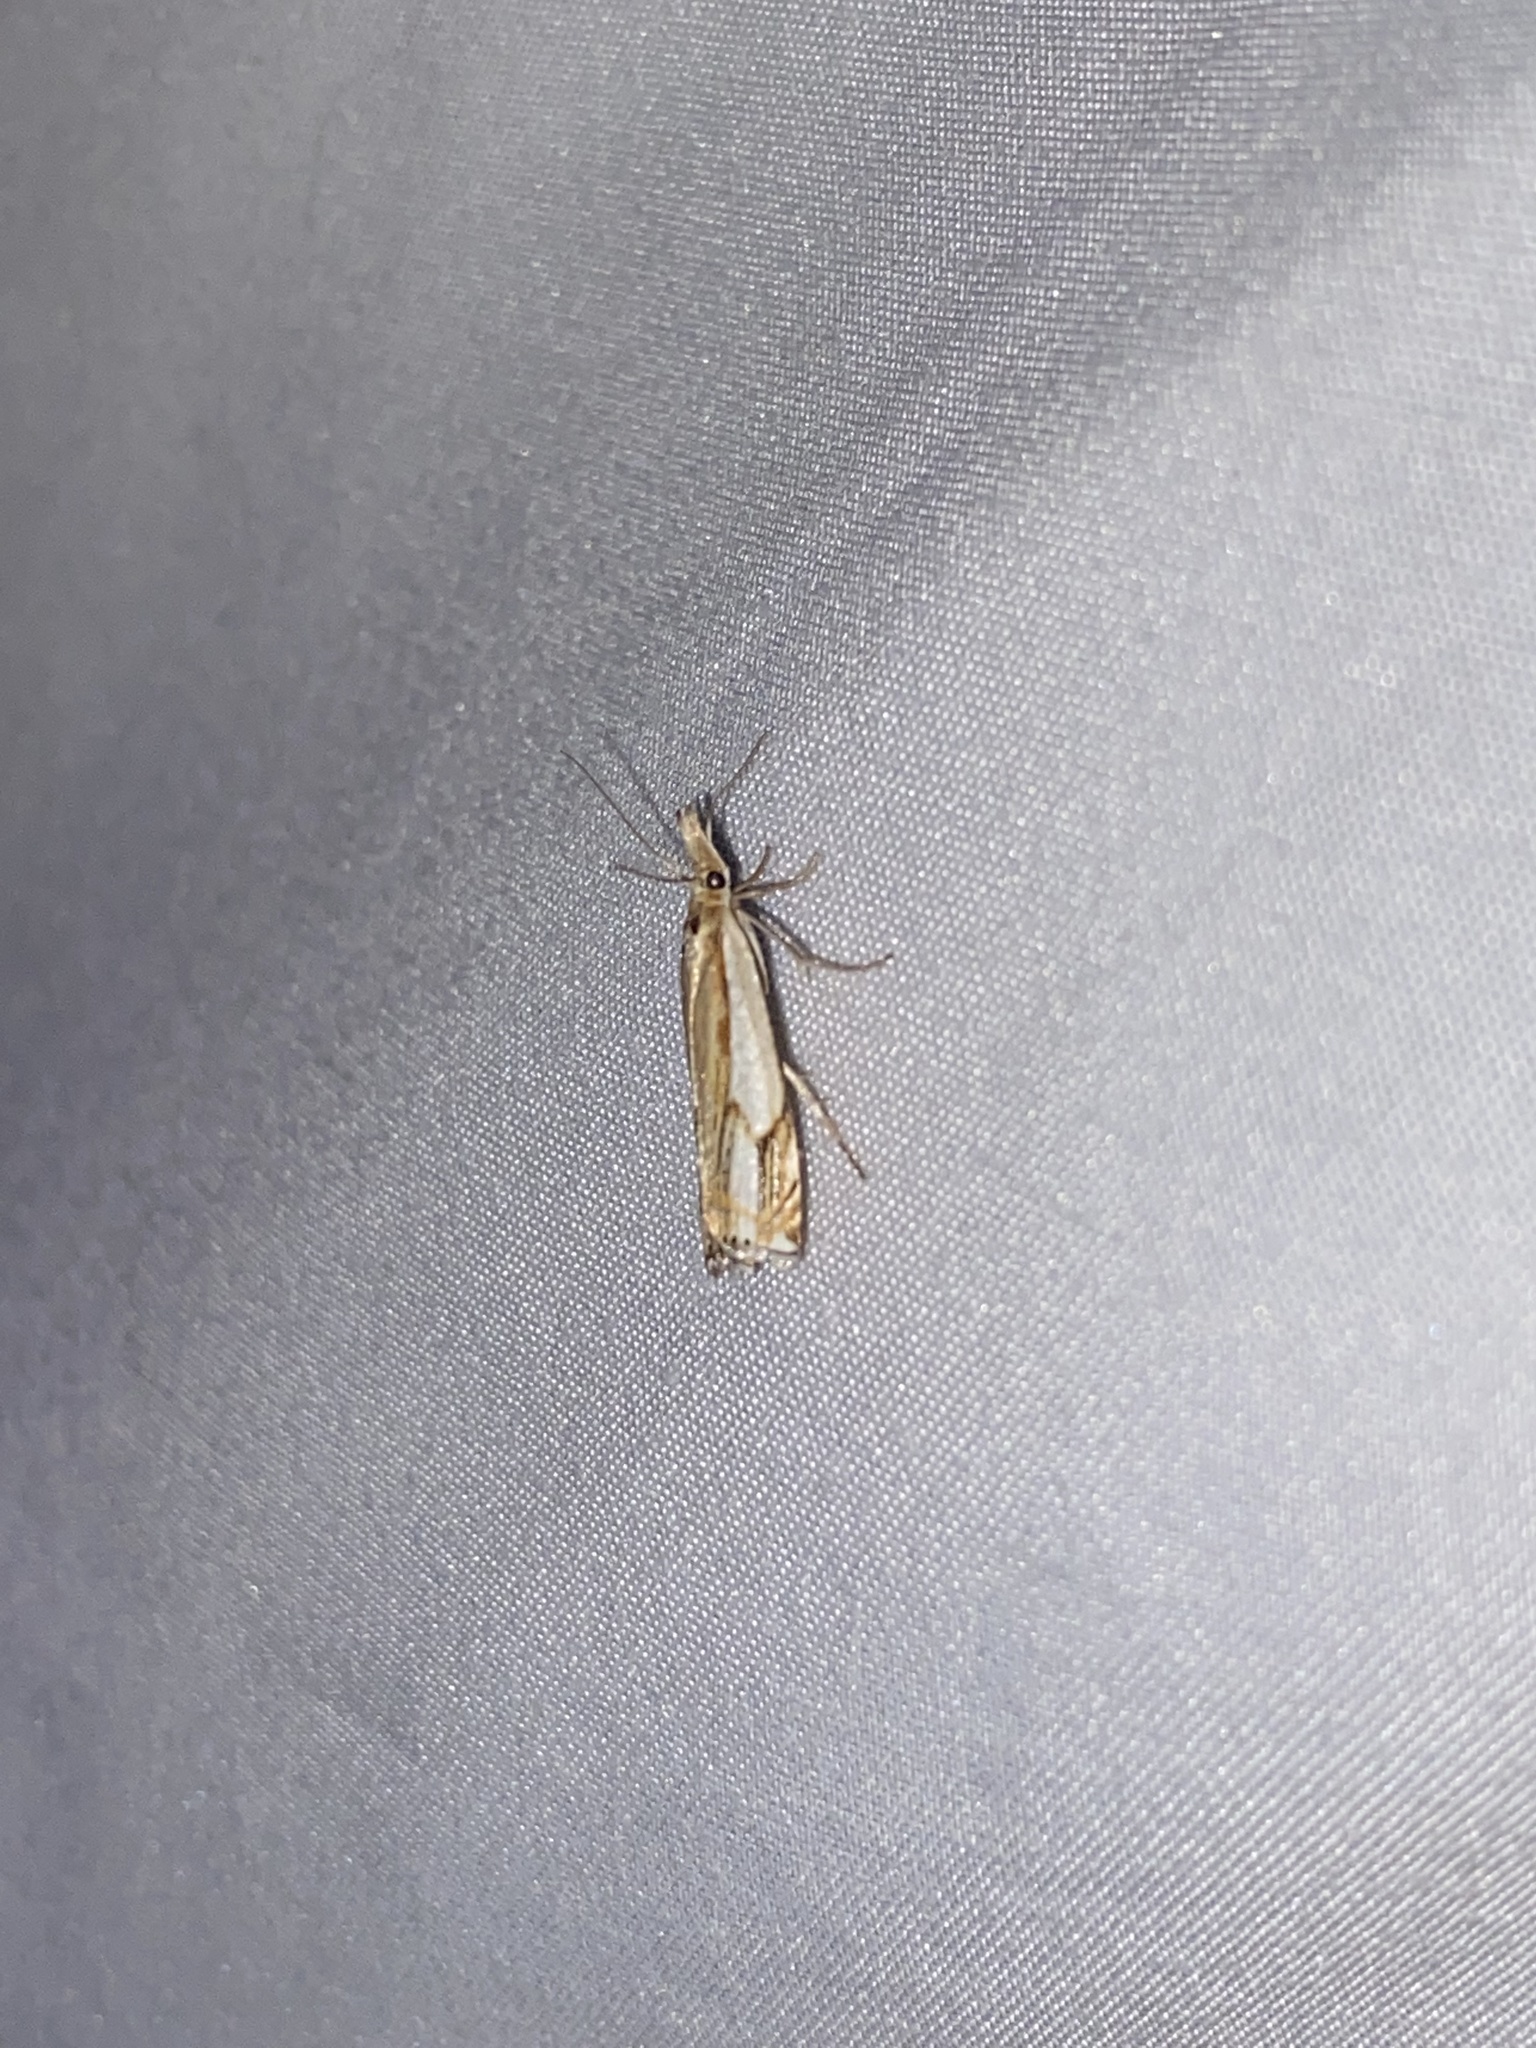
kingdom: Animalia
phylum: Arthropoda
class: Insecta
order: Lepidoptera
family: Crambidae
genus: Crambus
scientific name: Crambus agitatellus
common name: Double-banded grass-veneer
